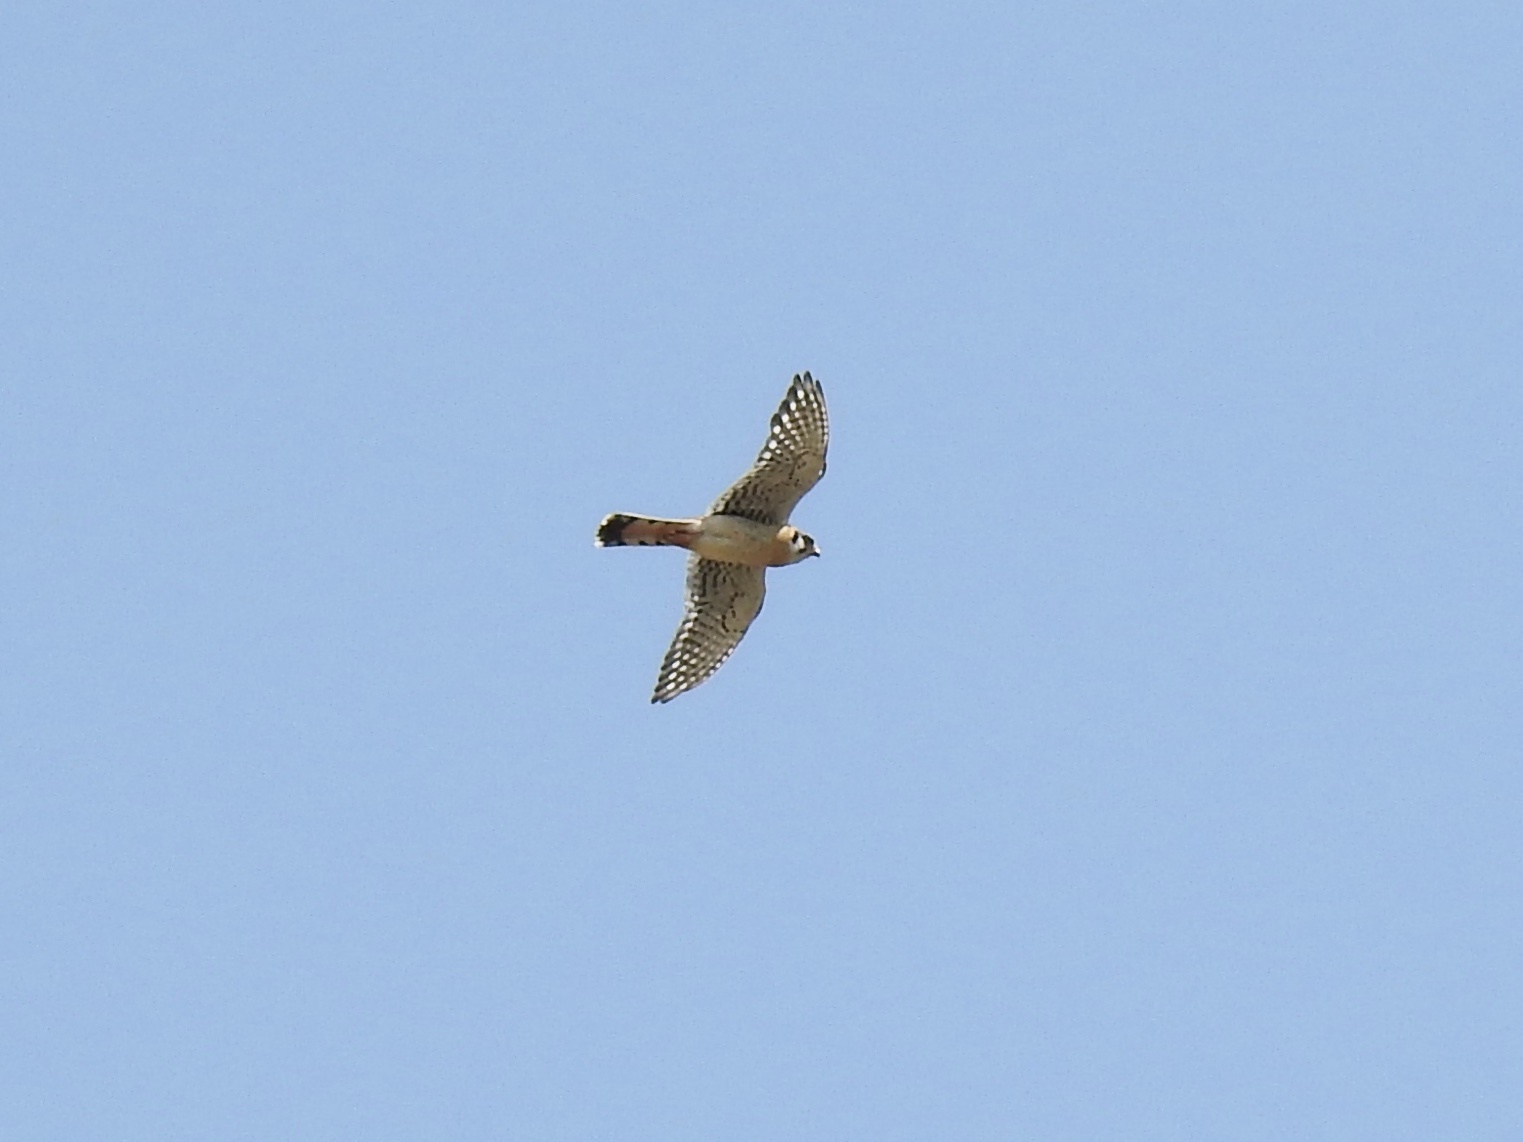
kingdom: Animalia
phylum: Chordata
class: Aves
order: Falconiformes
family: Falconidae
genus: Falco
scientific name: Falco sparverius
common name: American kestrel
